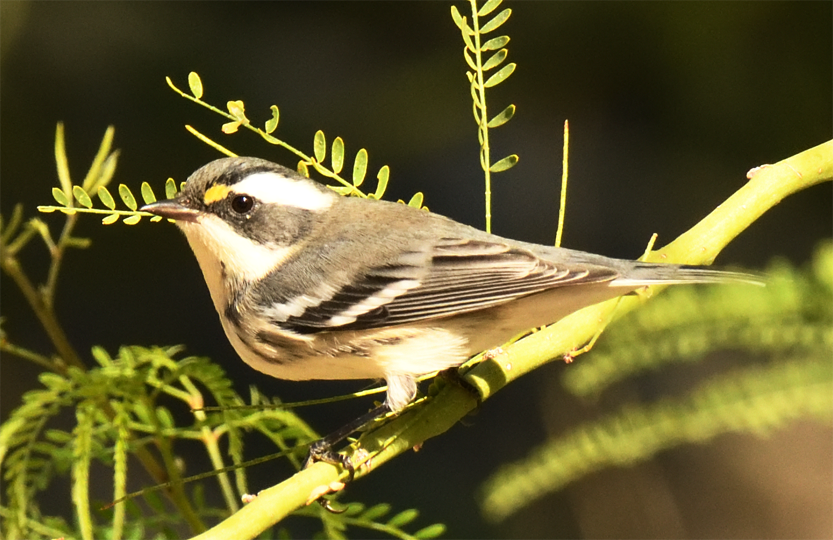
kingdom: Animalia
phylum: Chordata
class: Aves
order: Passeriformes
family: Parulidae
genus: Setophaga
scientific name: Setophaga nigrescens
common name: Black-throated gray warbler
